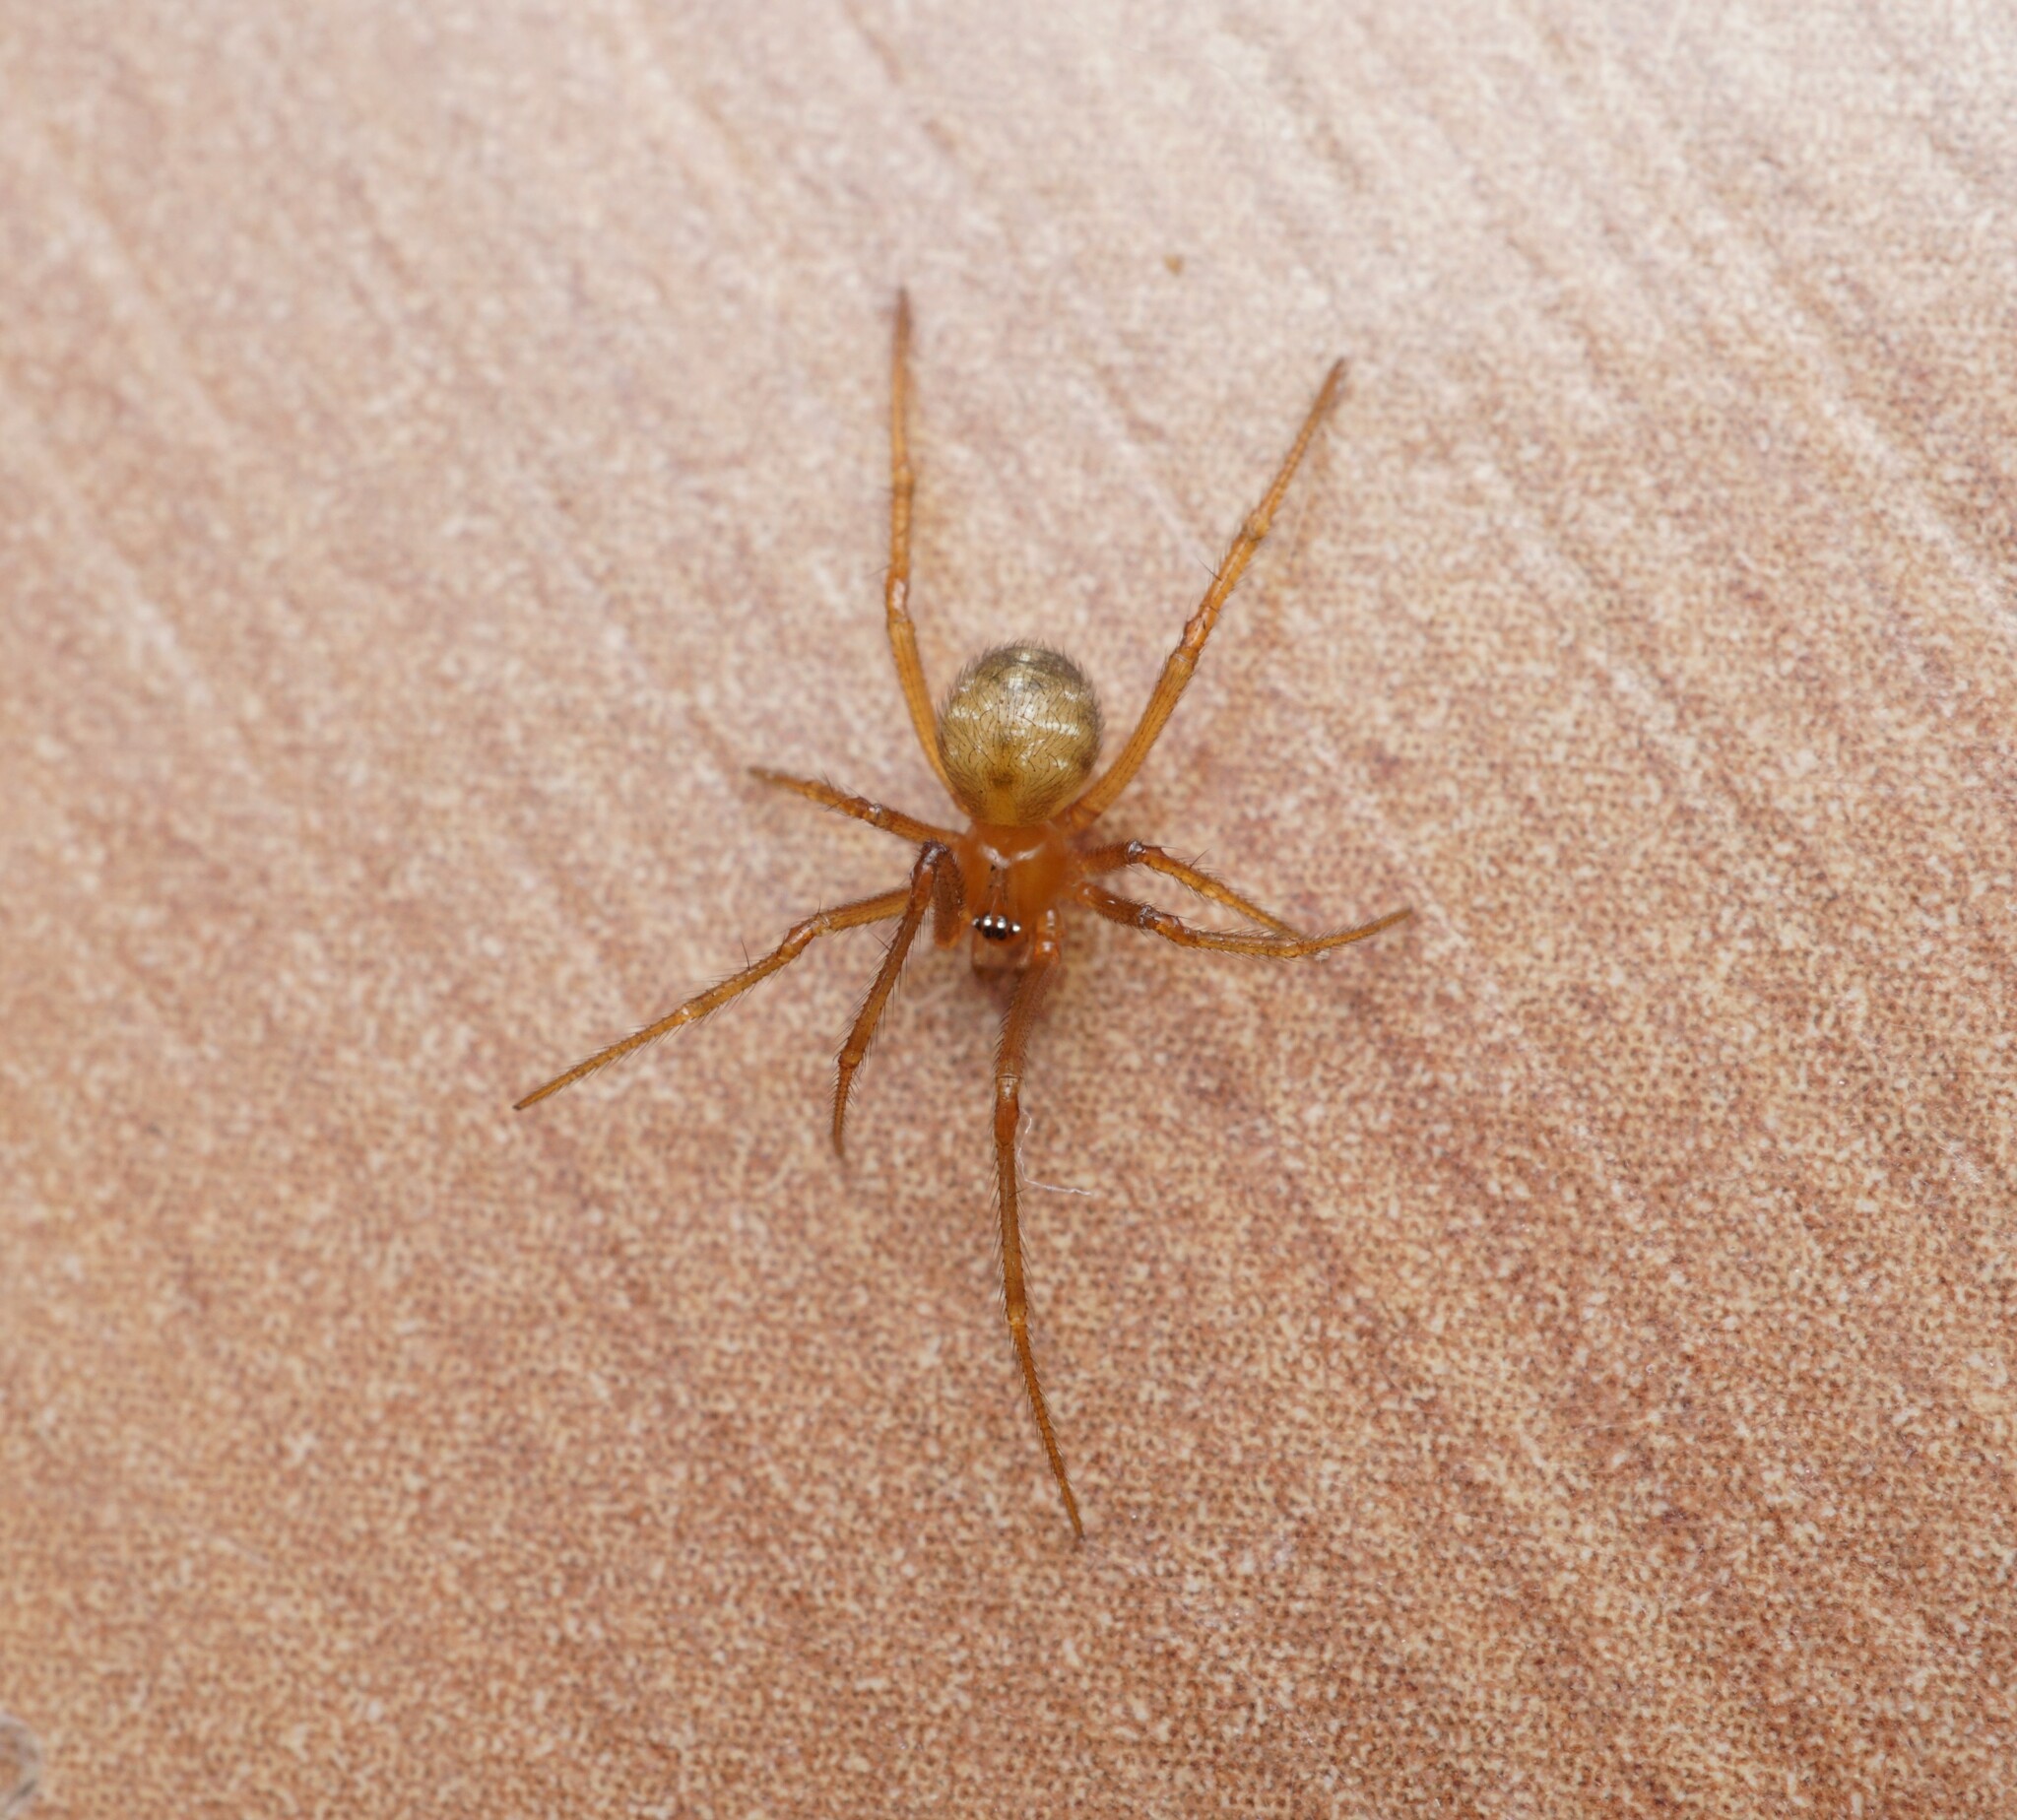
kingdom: Animalia
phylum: Arthropoda
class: Arachnida
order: Araneae
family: Theridiidae
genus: Nesticodes
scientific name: Nesticodes rufipes
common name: Cobweb spiders
